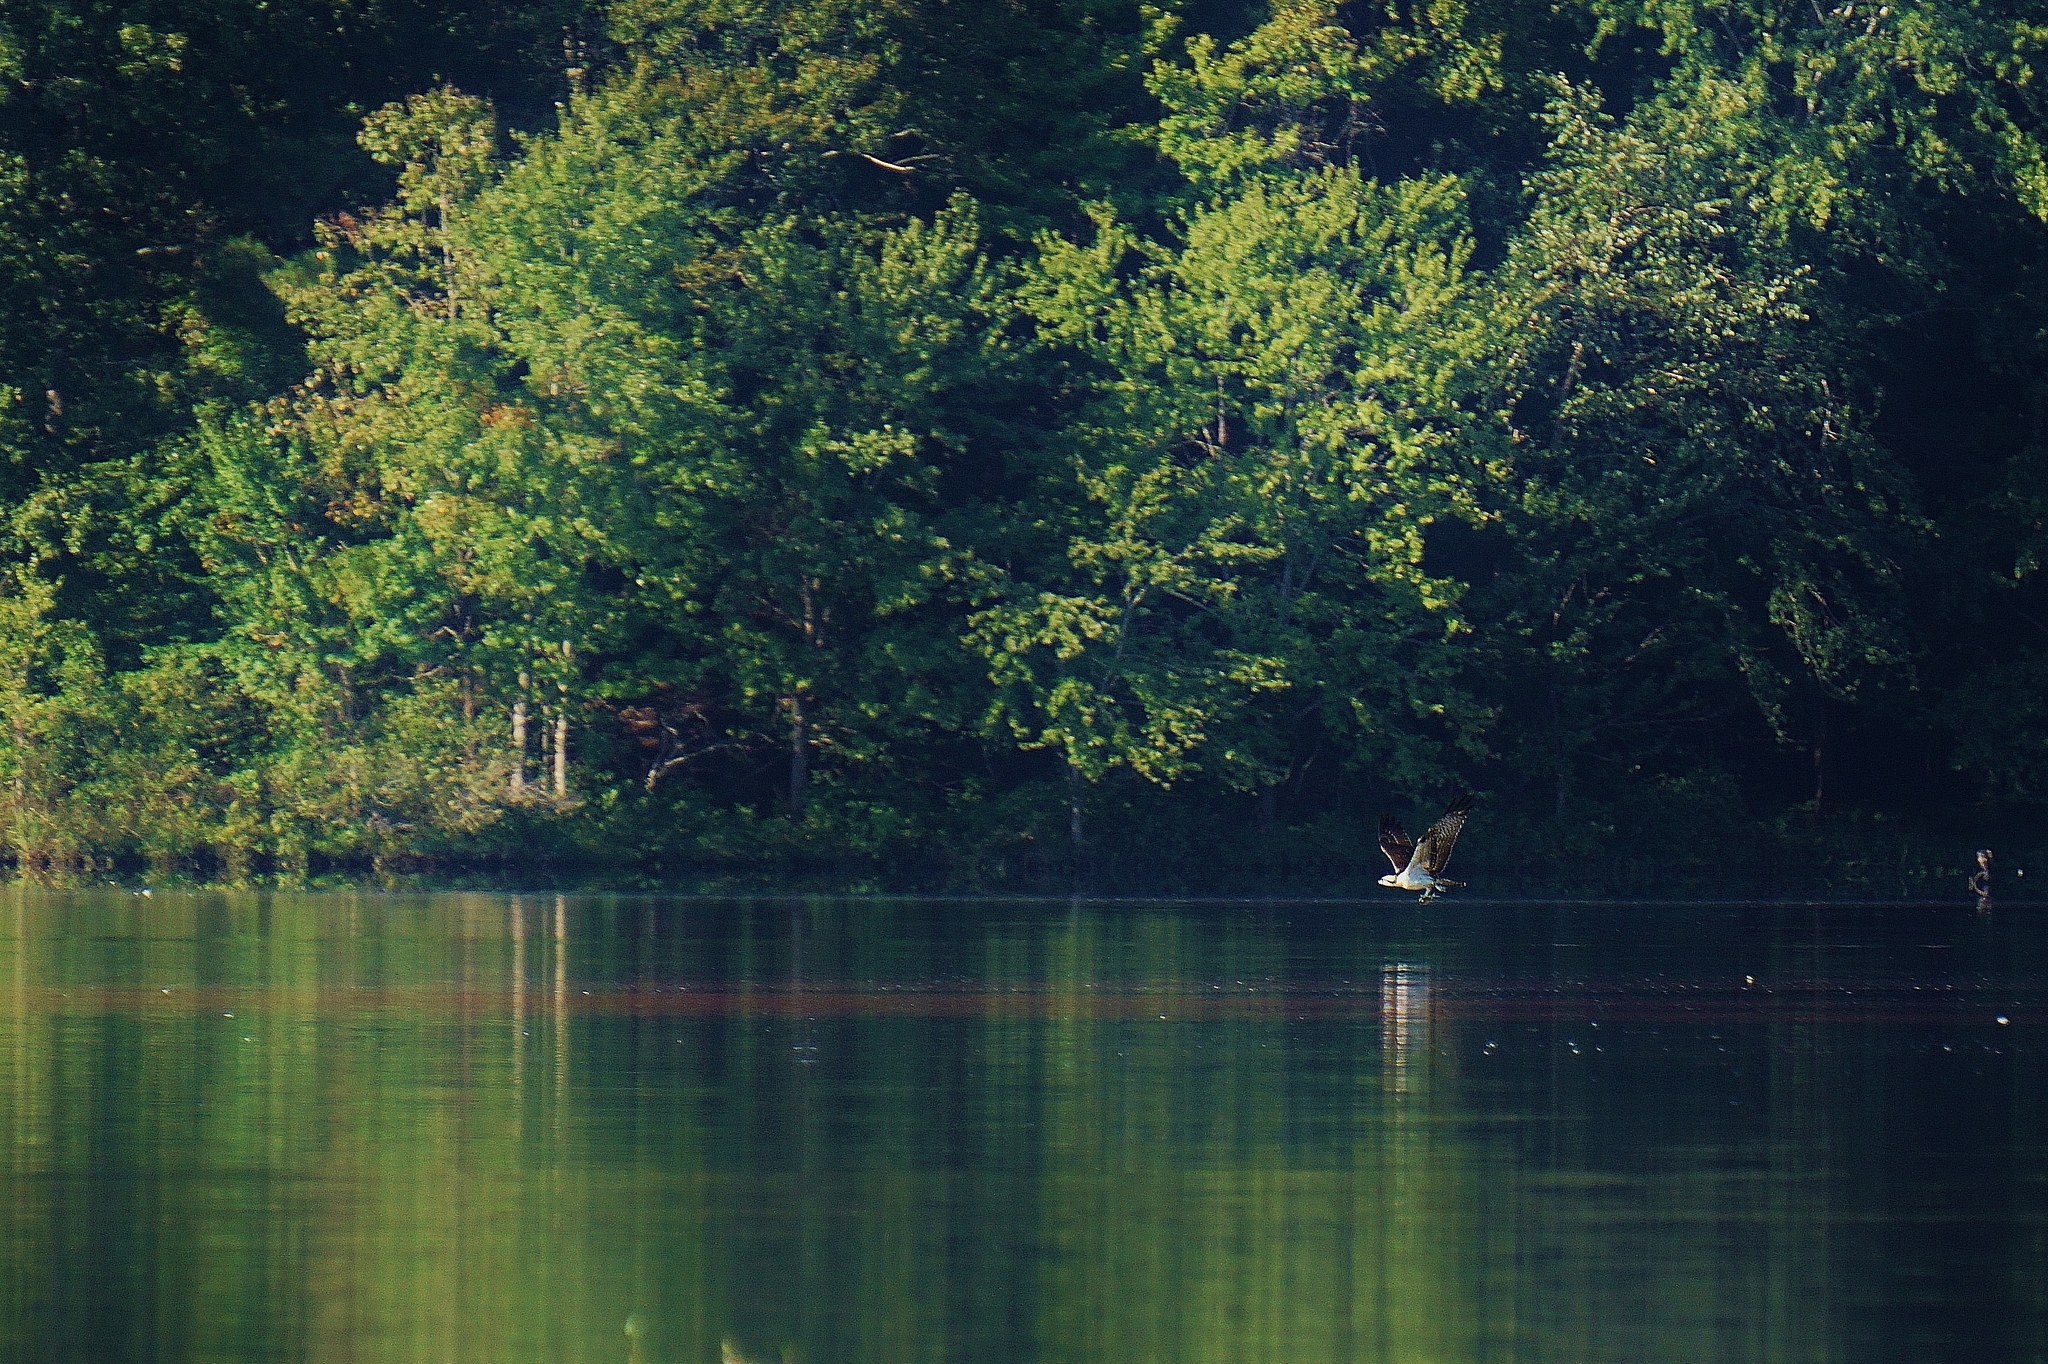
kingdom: Animalia
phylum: Chordata
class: Aves
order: Accipitriformes
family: Pandionidae
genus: Pandion
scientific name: Pandion haliaetus
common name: Osprey
